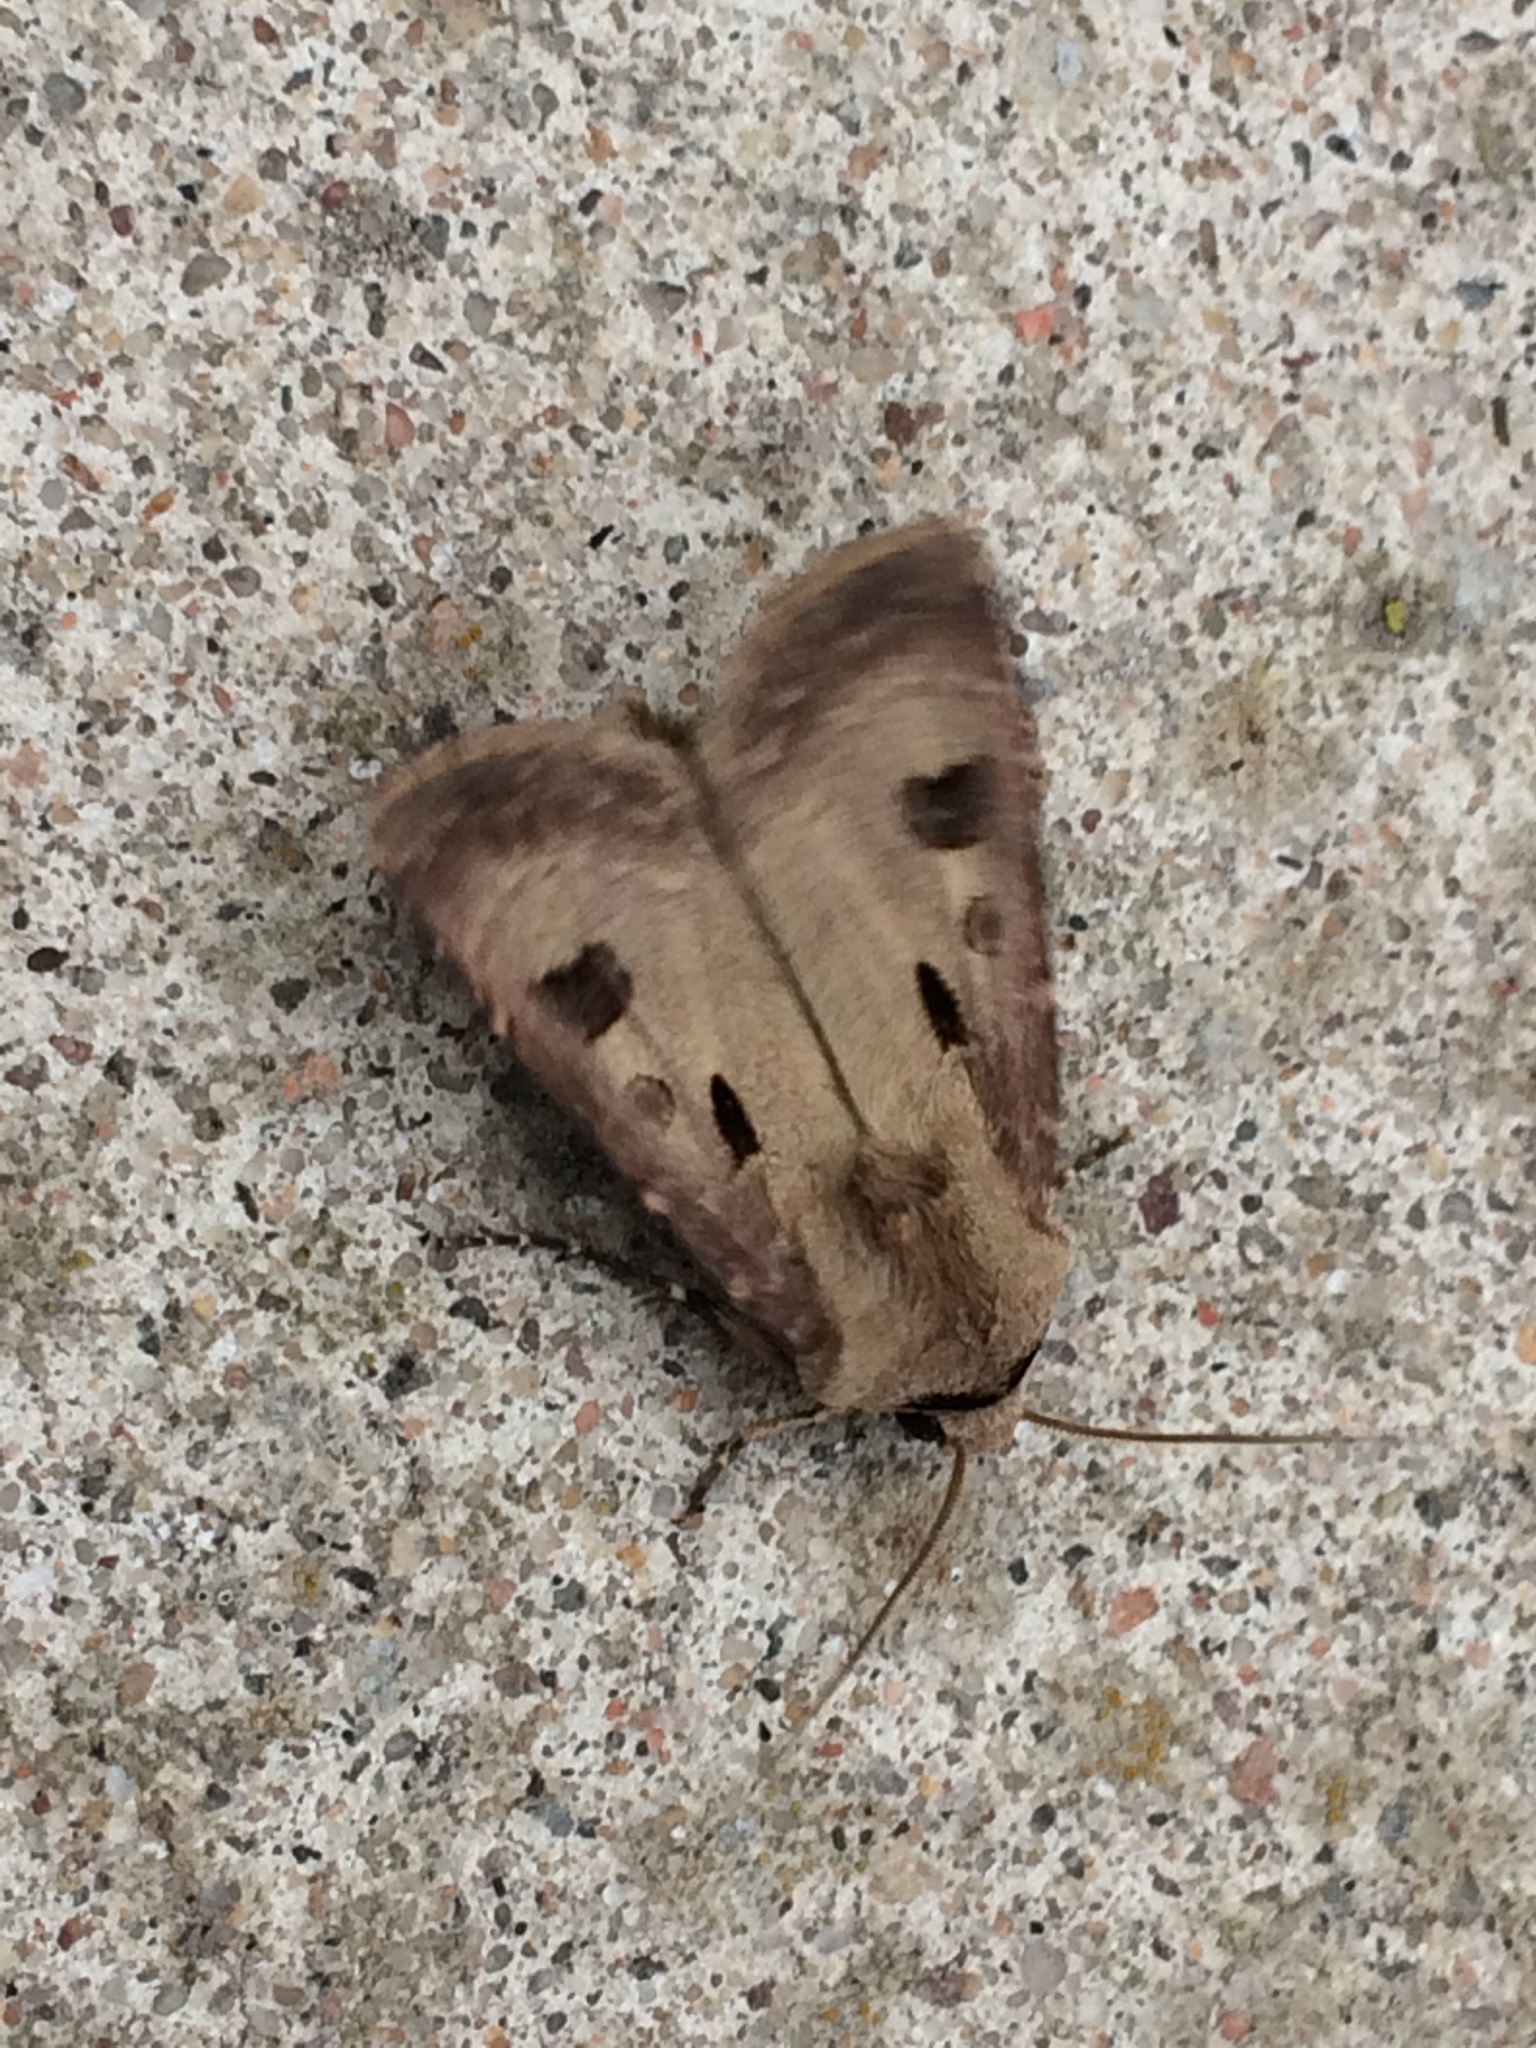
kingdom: Animalia
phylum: Arthropoda
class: Insecta
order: Lepidoptera
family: Noctuidae
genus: Agrotis
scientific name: Agrotis exclamationis
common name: Heart and dart
